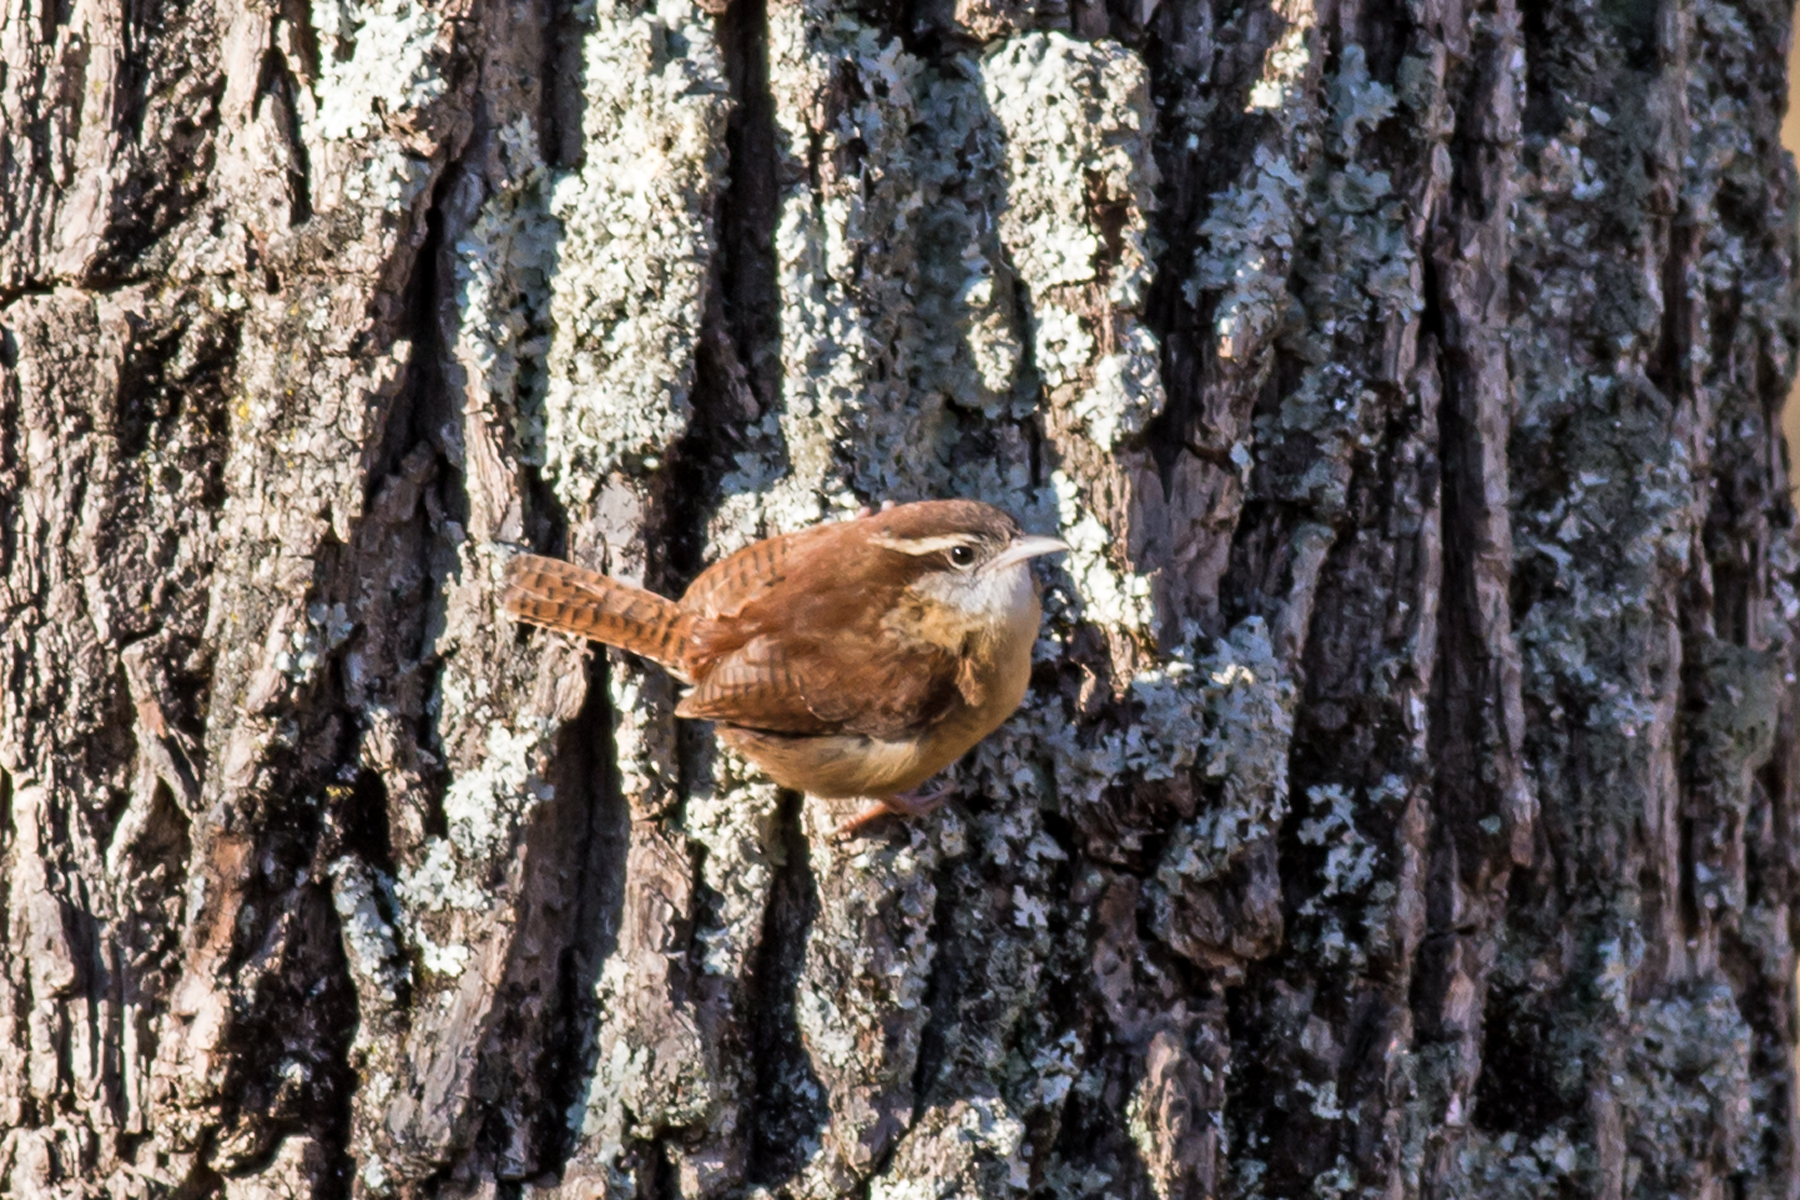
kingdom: Animalia
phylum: Chordata
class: Aves
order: Passeriformes
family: Troglodytidae
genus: Thryothorus
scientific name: Thryothorus ludovicianus
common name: Carolina wren
